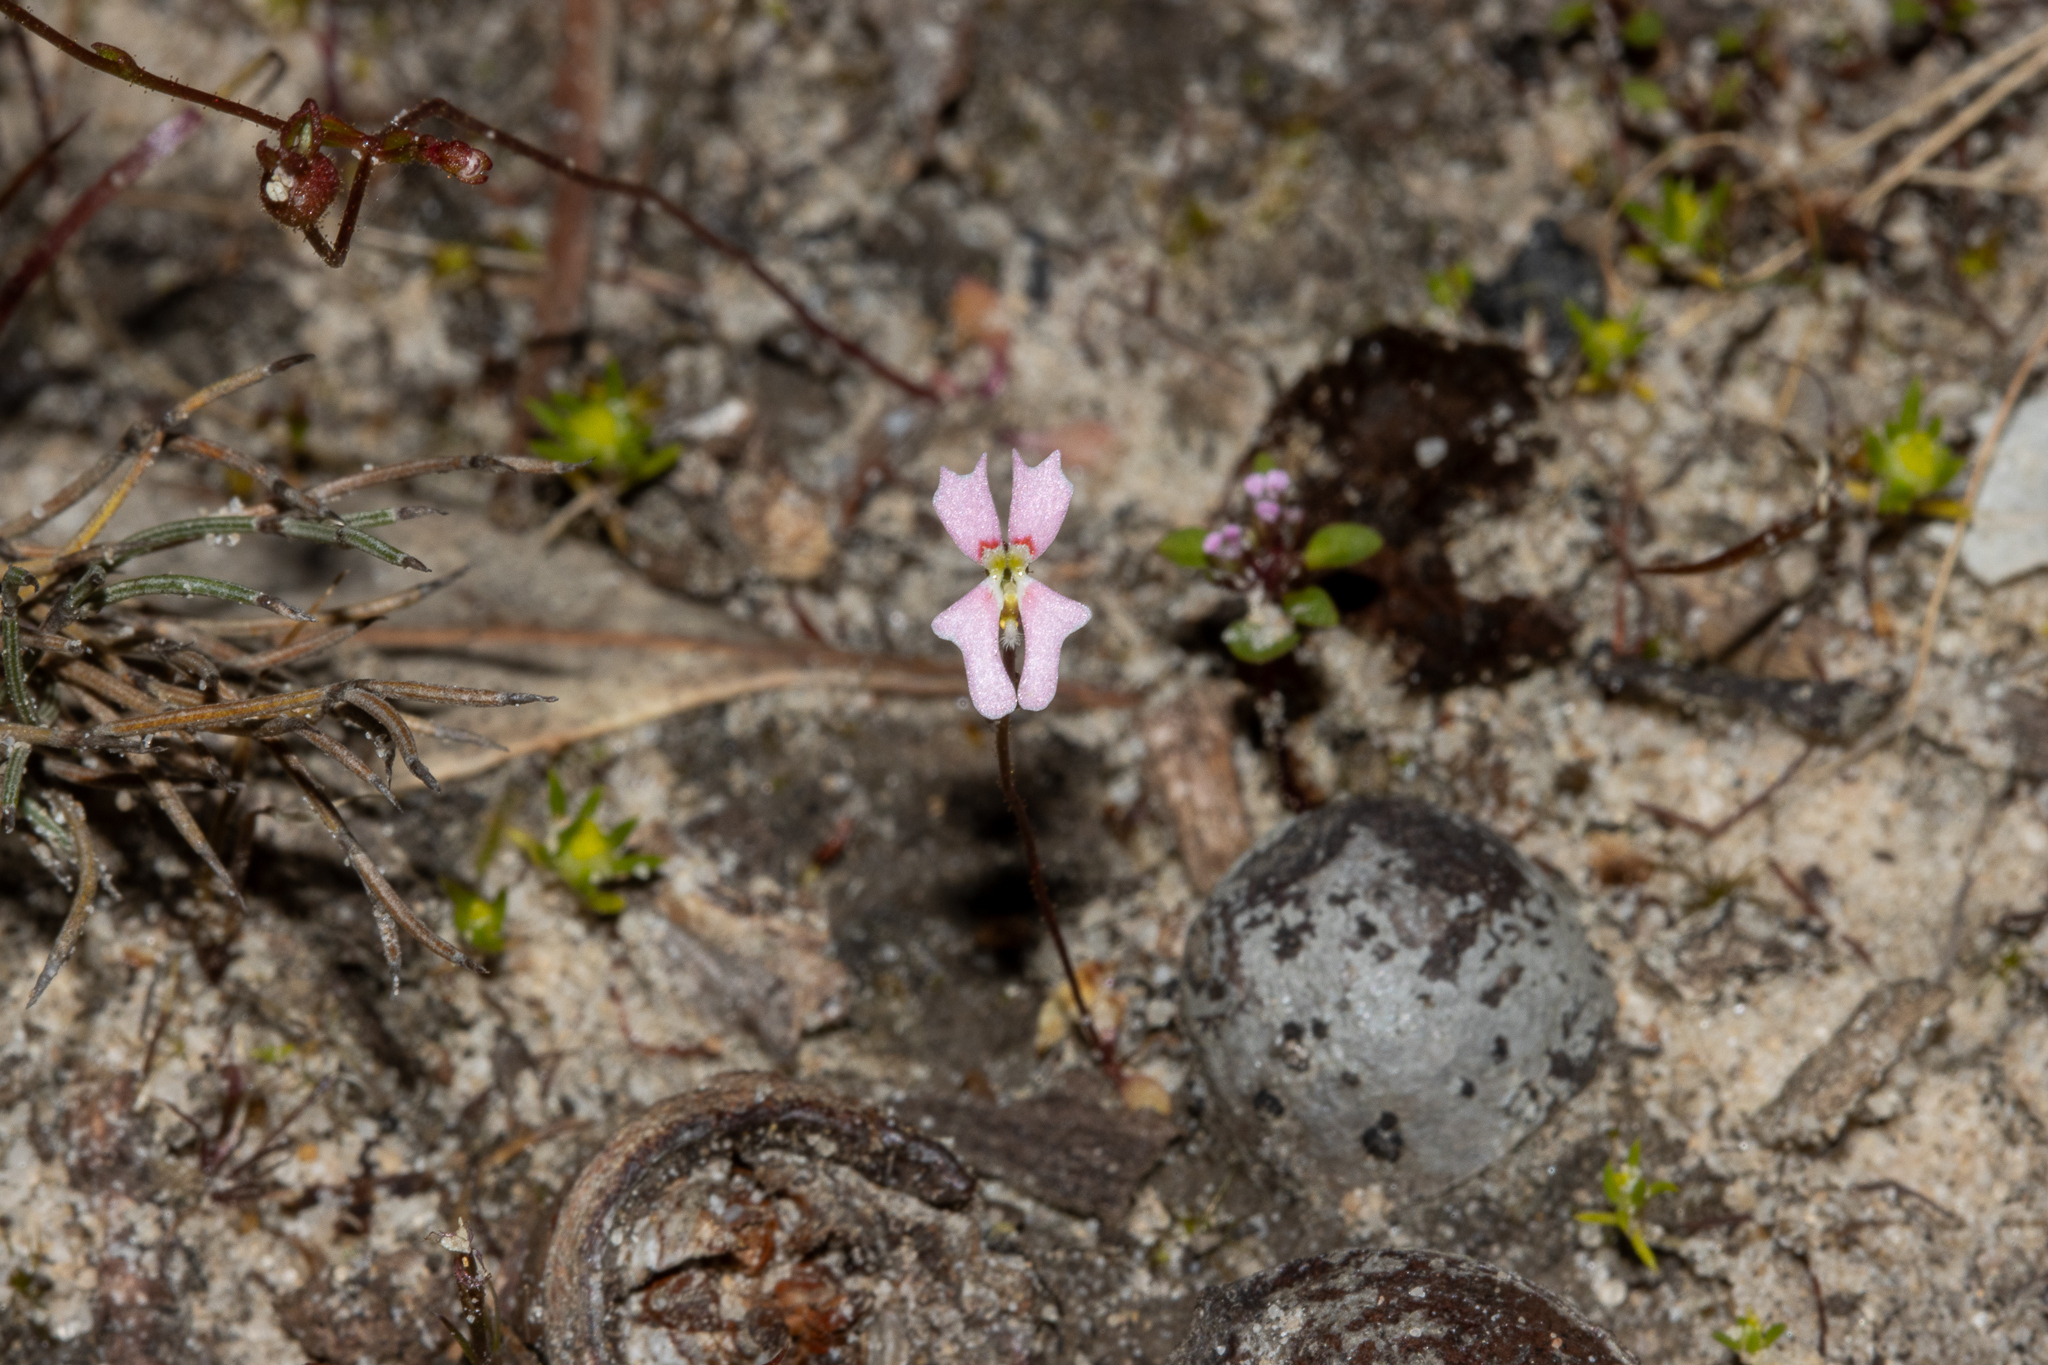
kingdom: Plantae
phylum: Tracheophyta
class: Magnoliopsida
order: Asterales
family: Stylidiaceae
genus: Stylidium
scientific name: Stylidium calcaratum
